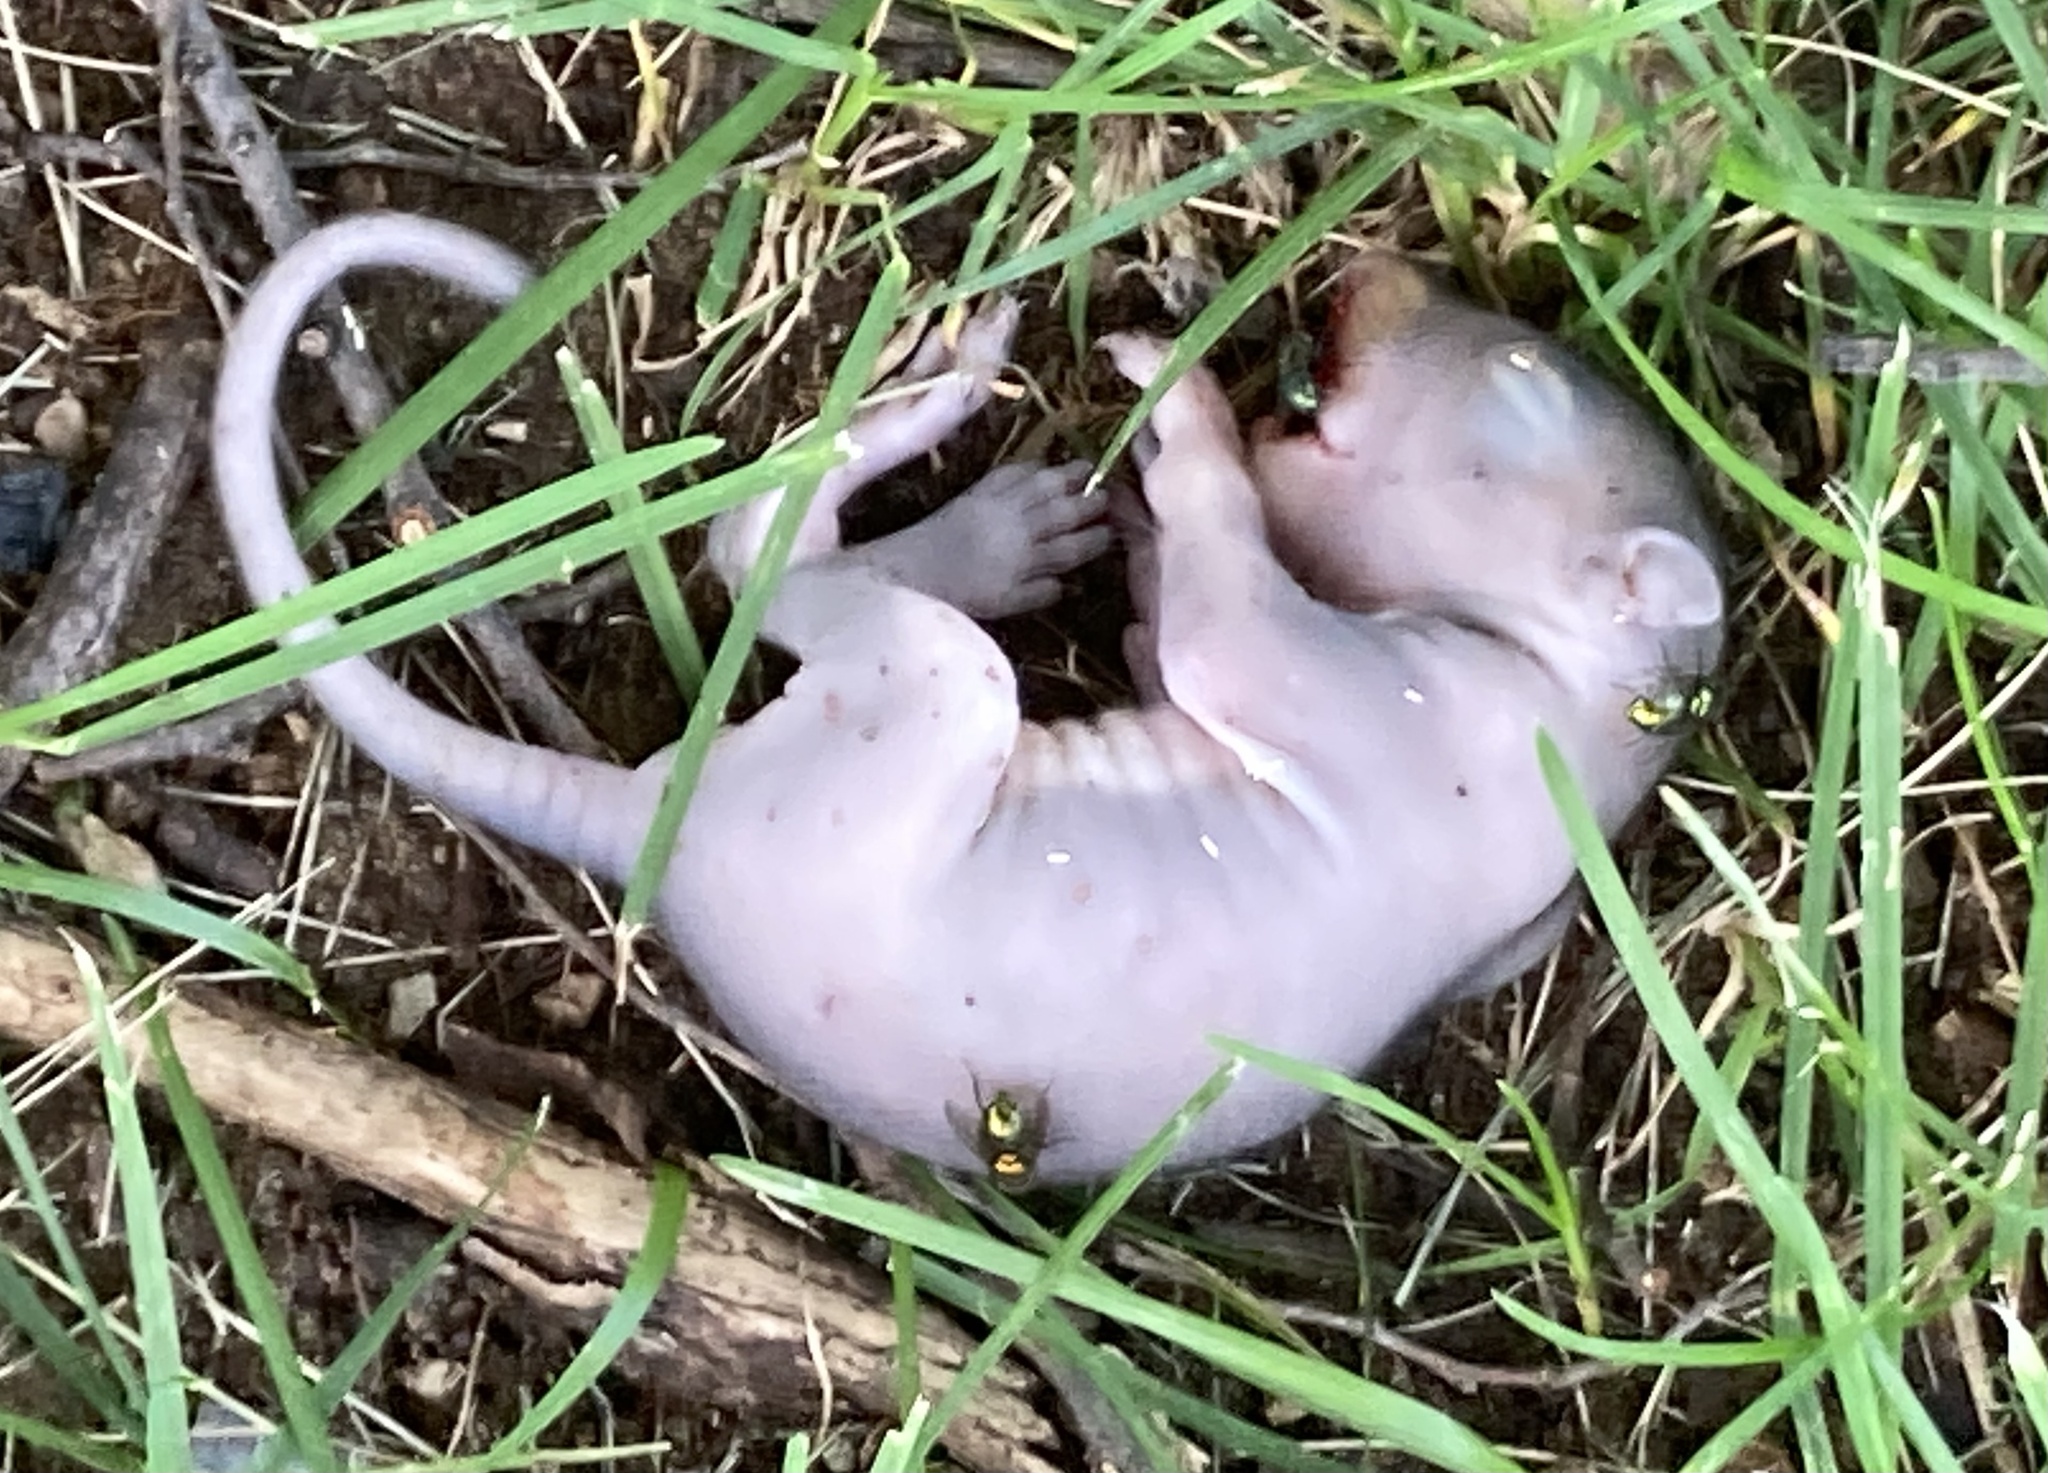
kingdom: Animalia
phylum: Chordata
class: Mammalia
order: Rodentia
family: Sciuridae
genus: Sciurus
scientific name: Sciurus carolinensis
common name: Eastern gray squirrel
